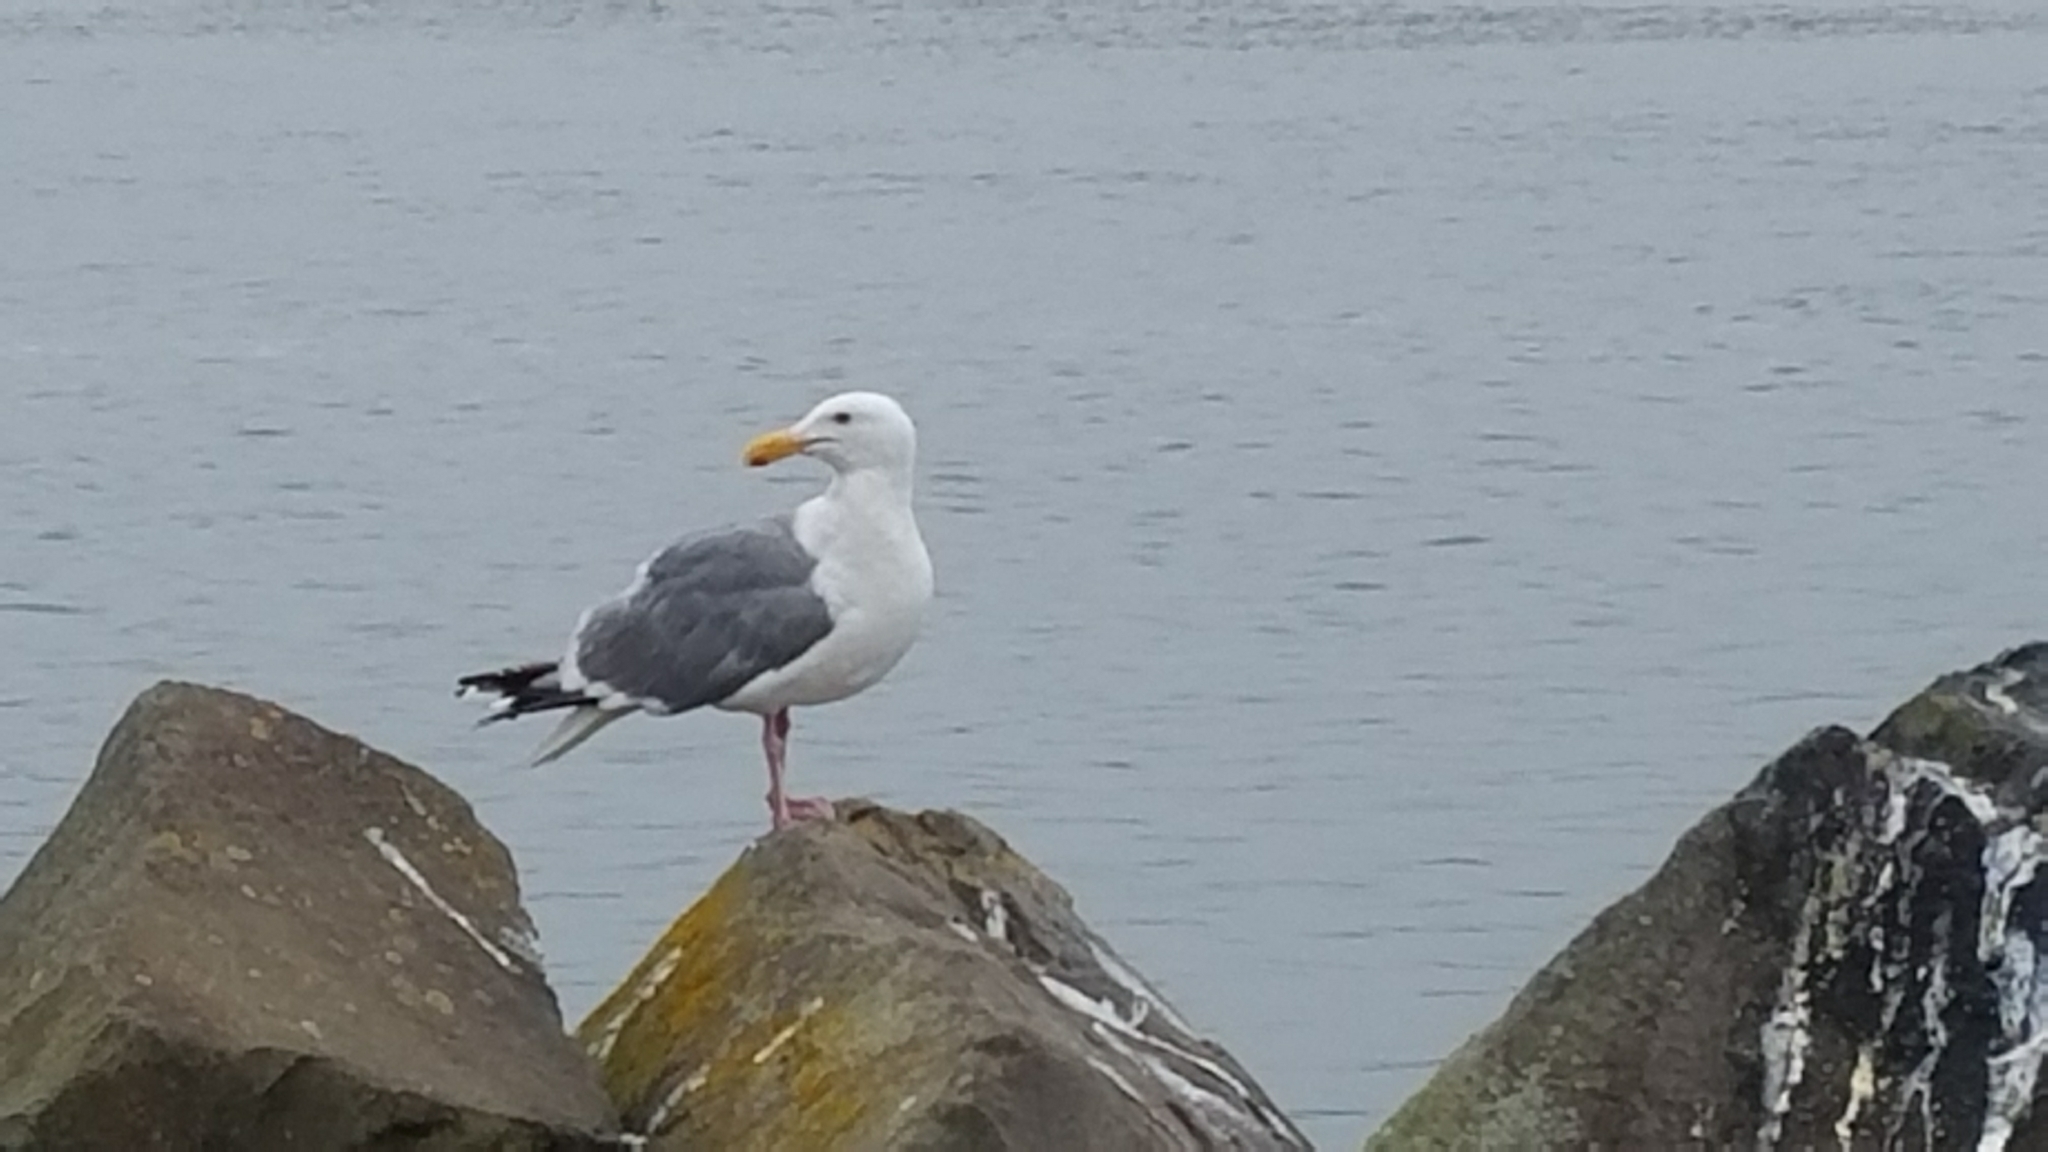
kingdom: Animalia
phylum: Chordata
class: Aves
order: Charadriiformes
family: Laridae
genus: Larus
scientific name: Larus occidentalis
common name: Western gull
